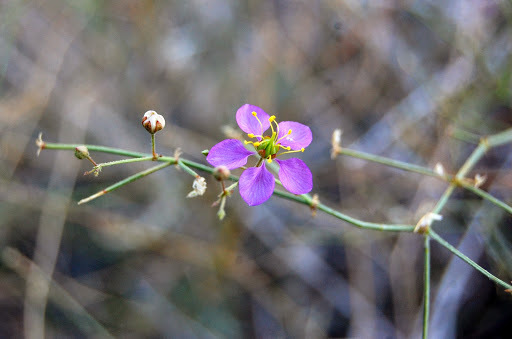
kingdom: Plantae
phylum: Tracheophyta
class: Magnoliopsida
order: Zygophyllales
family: Zygophyllaceae
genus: Fagonia
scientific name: Fagonia laevis
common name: California fagonbush
